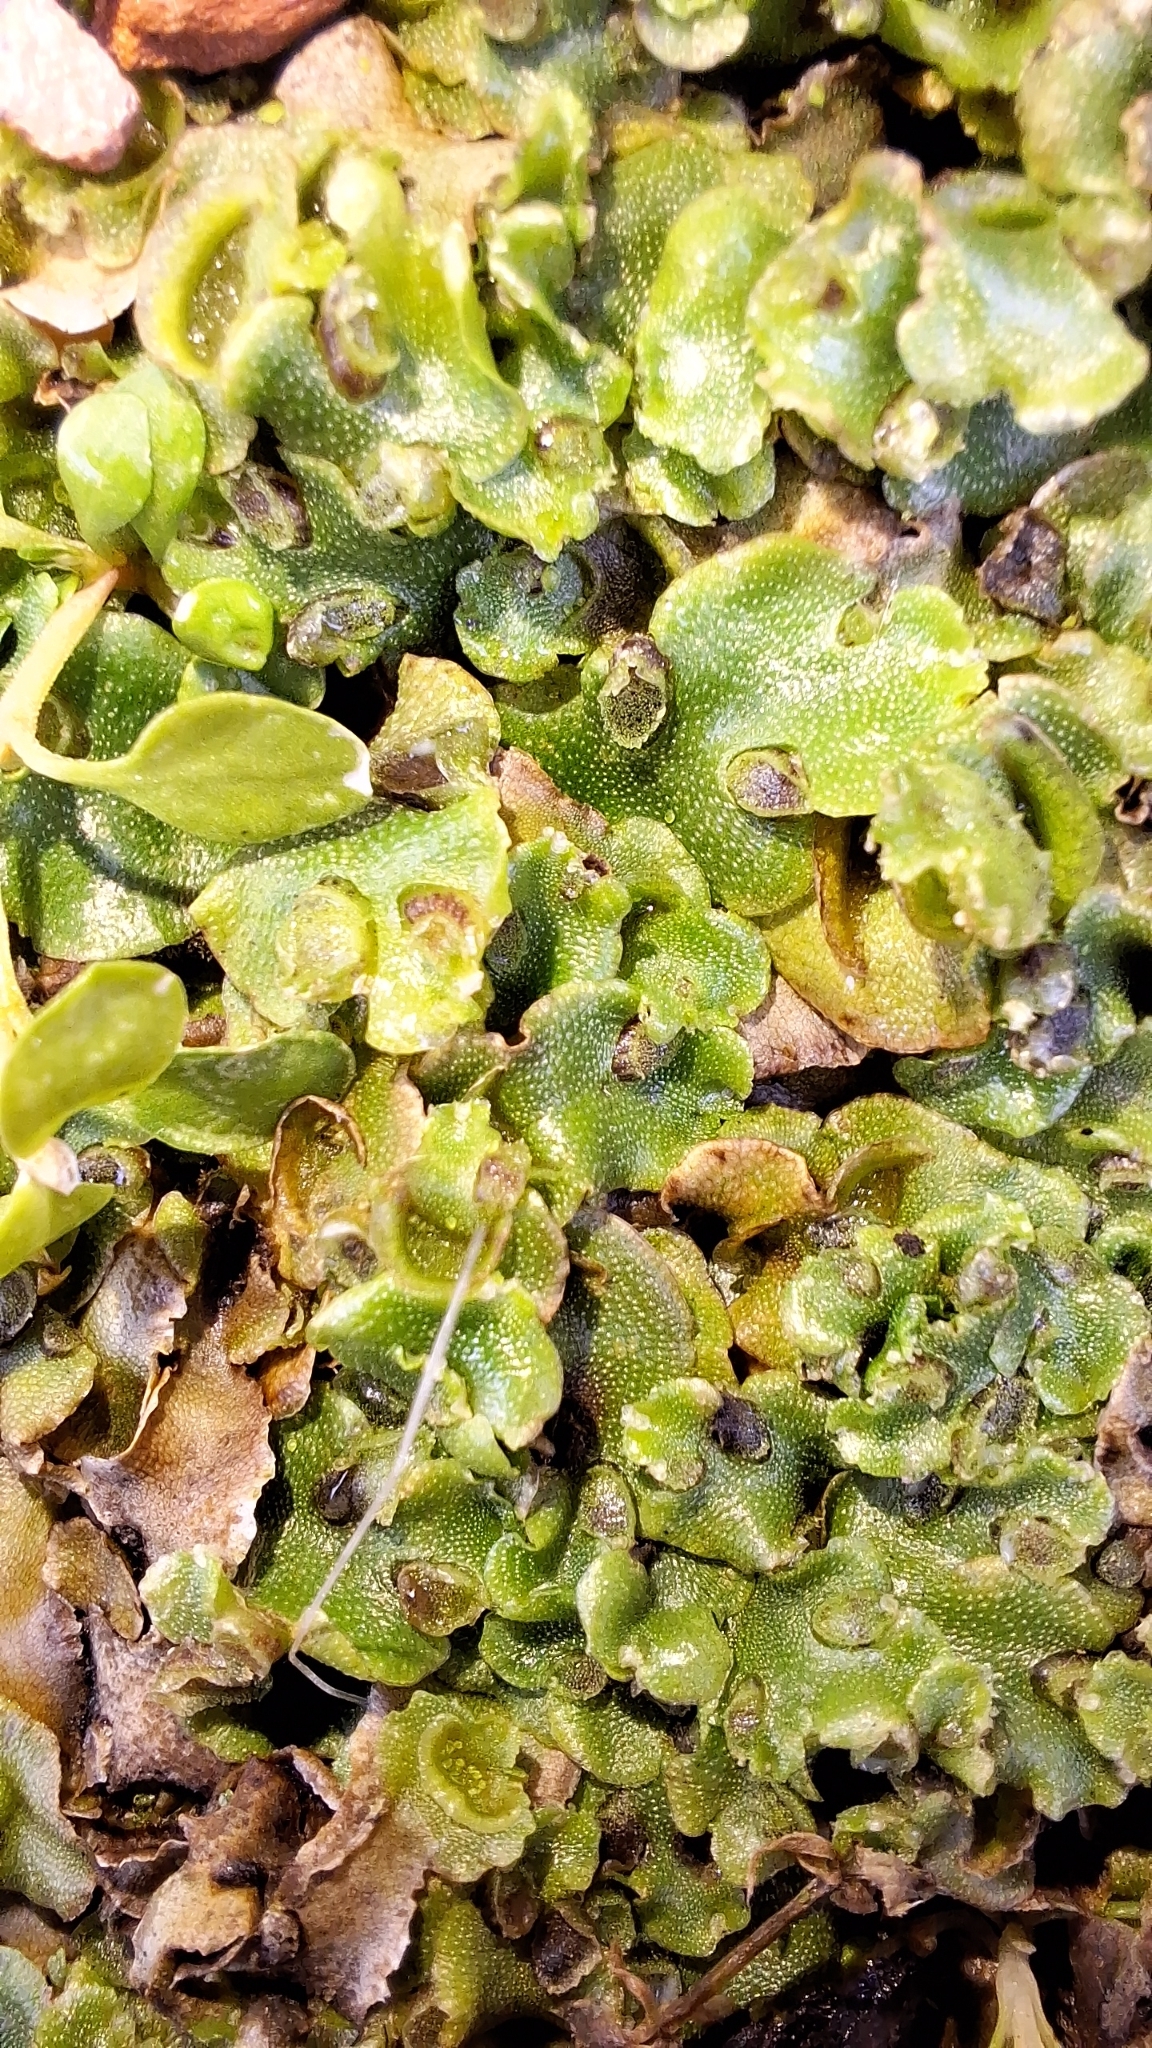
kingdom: Plantae
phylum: Marchantiophyta
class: Marchantiopsida
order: Lunulariales
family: Lunulariaceae
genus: Lunularia
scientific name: Lunularia cruciata
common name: Crescent-cup liverwort
